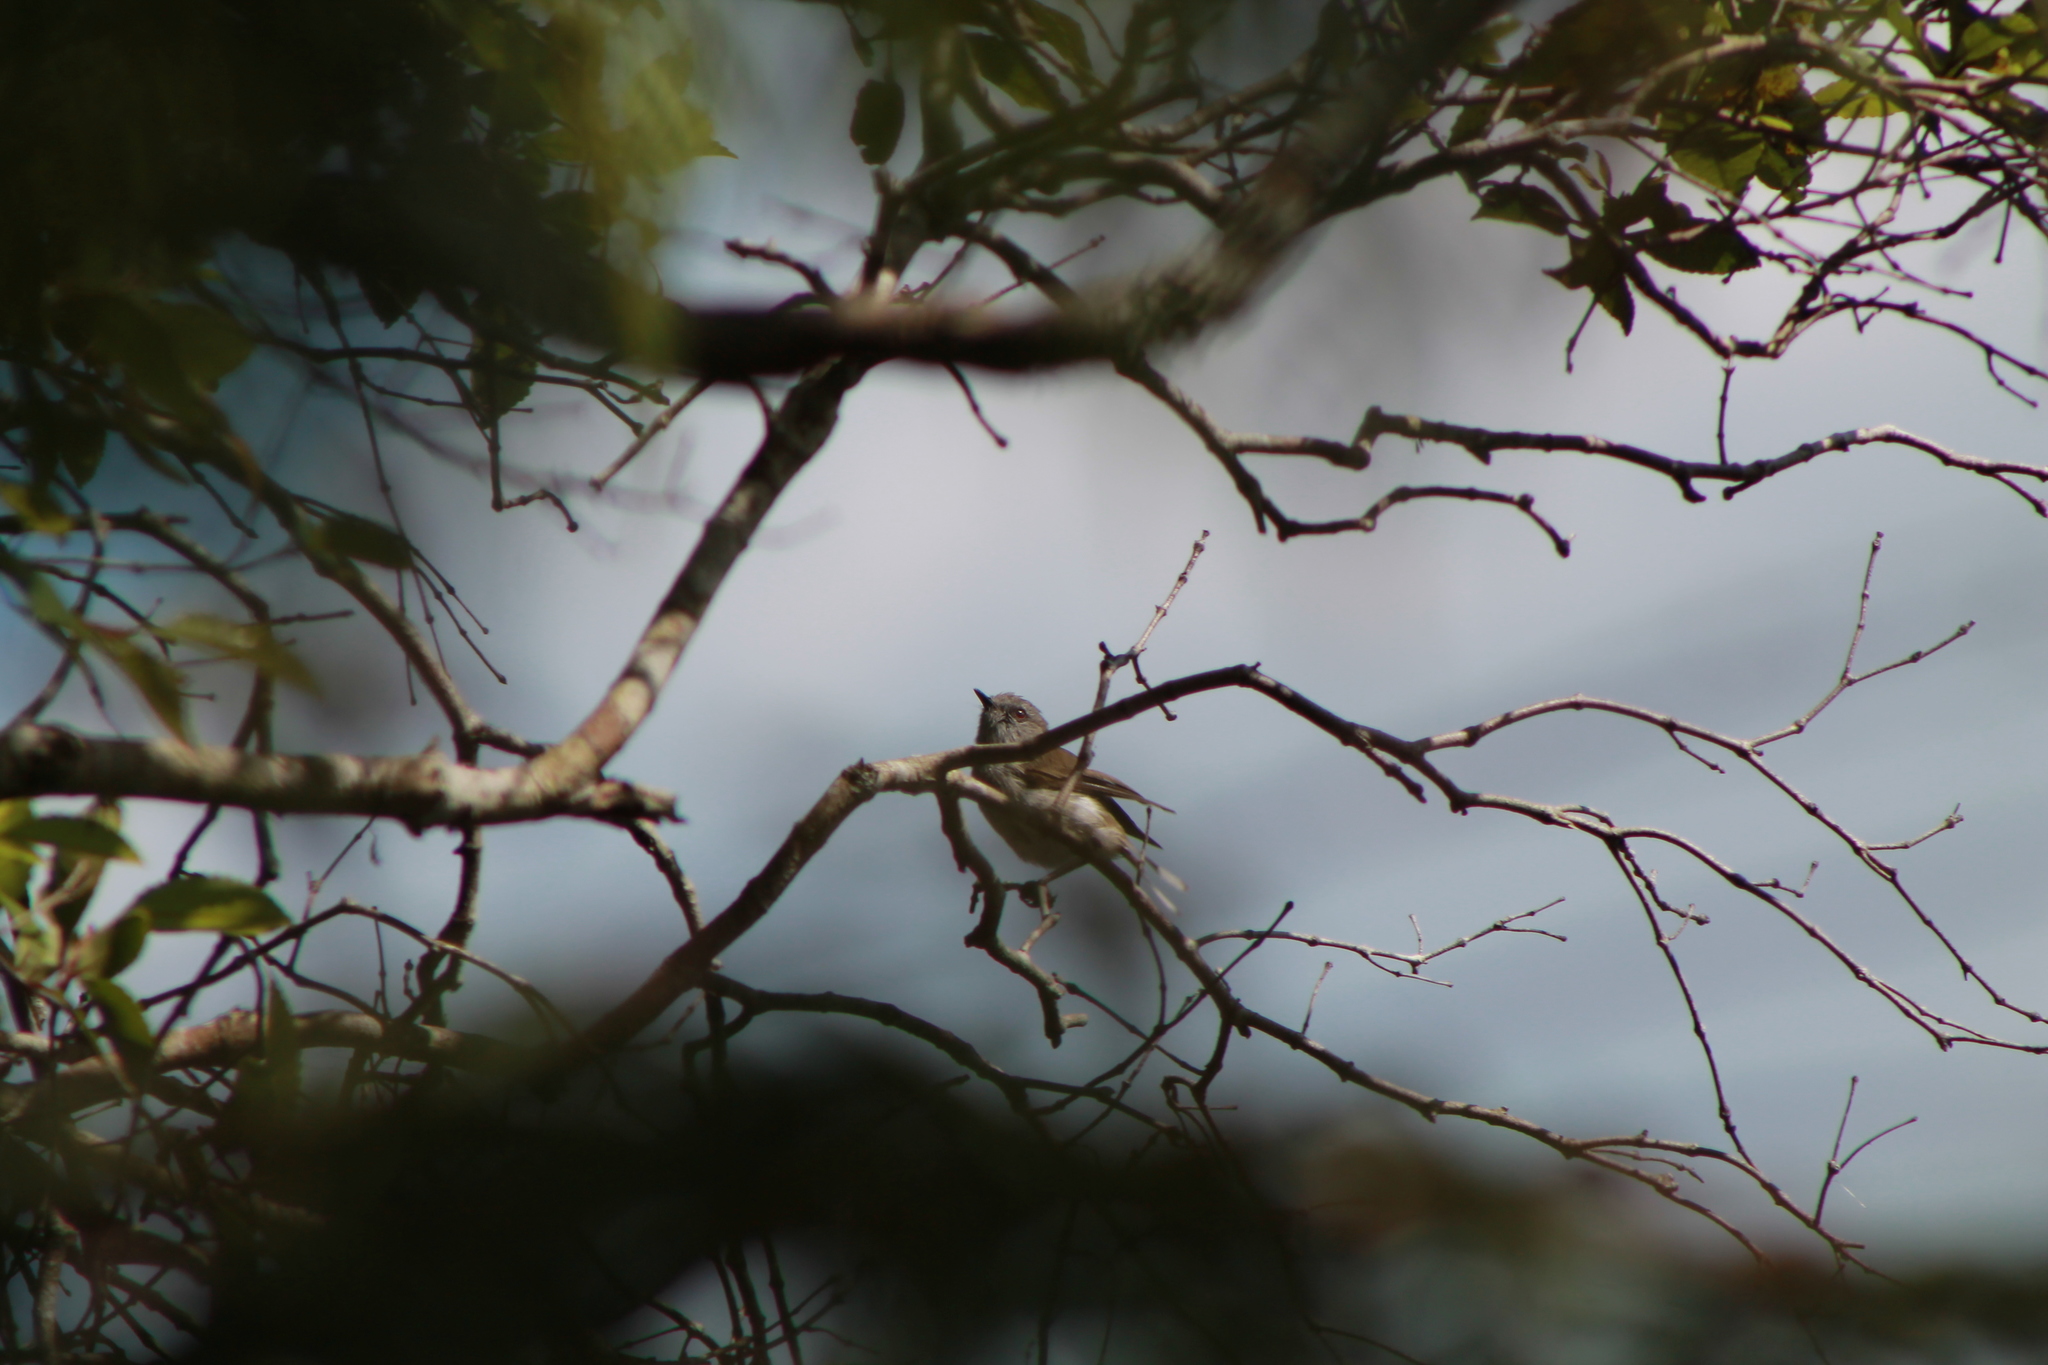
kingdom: Animalia
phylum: Chordata
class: Aves
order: Passeriformes
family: Acanthizidae
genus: Gerygone
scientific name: Gerygone igata
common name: Grey gerygone
